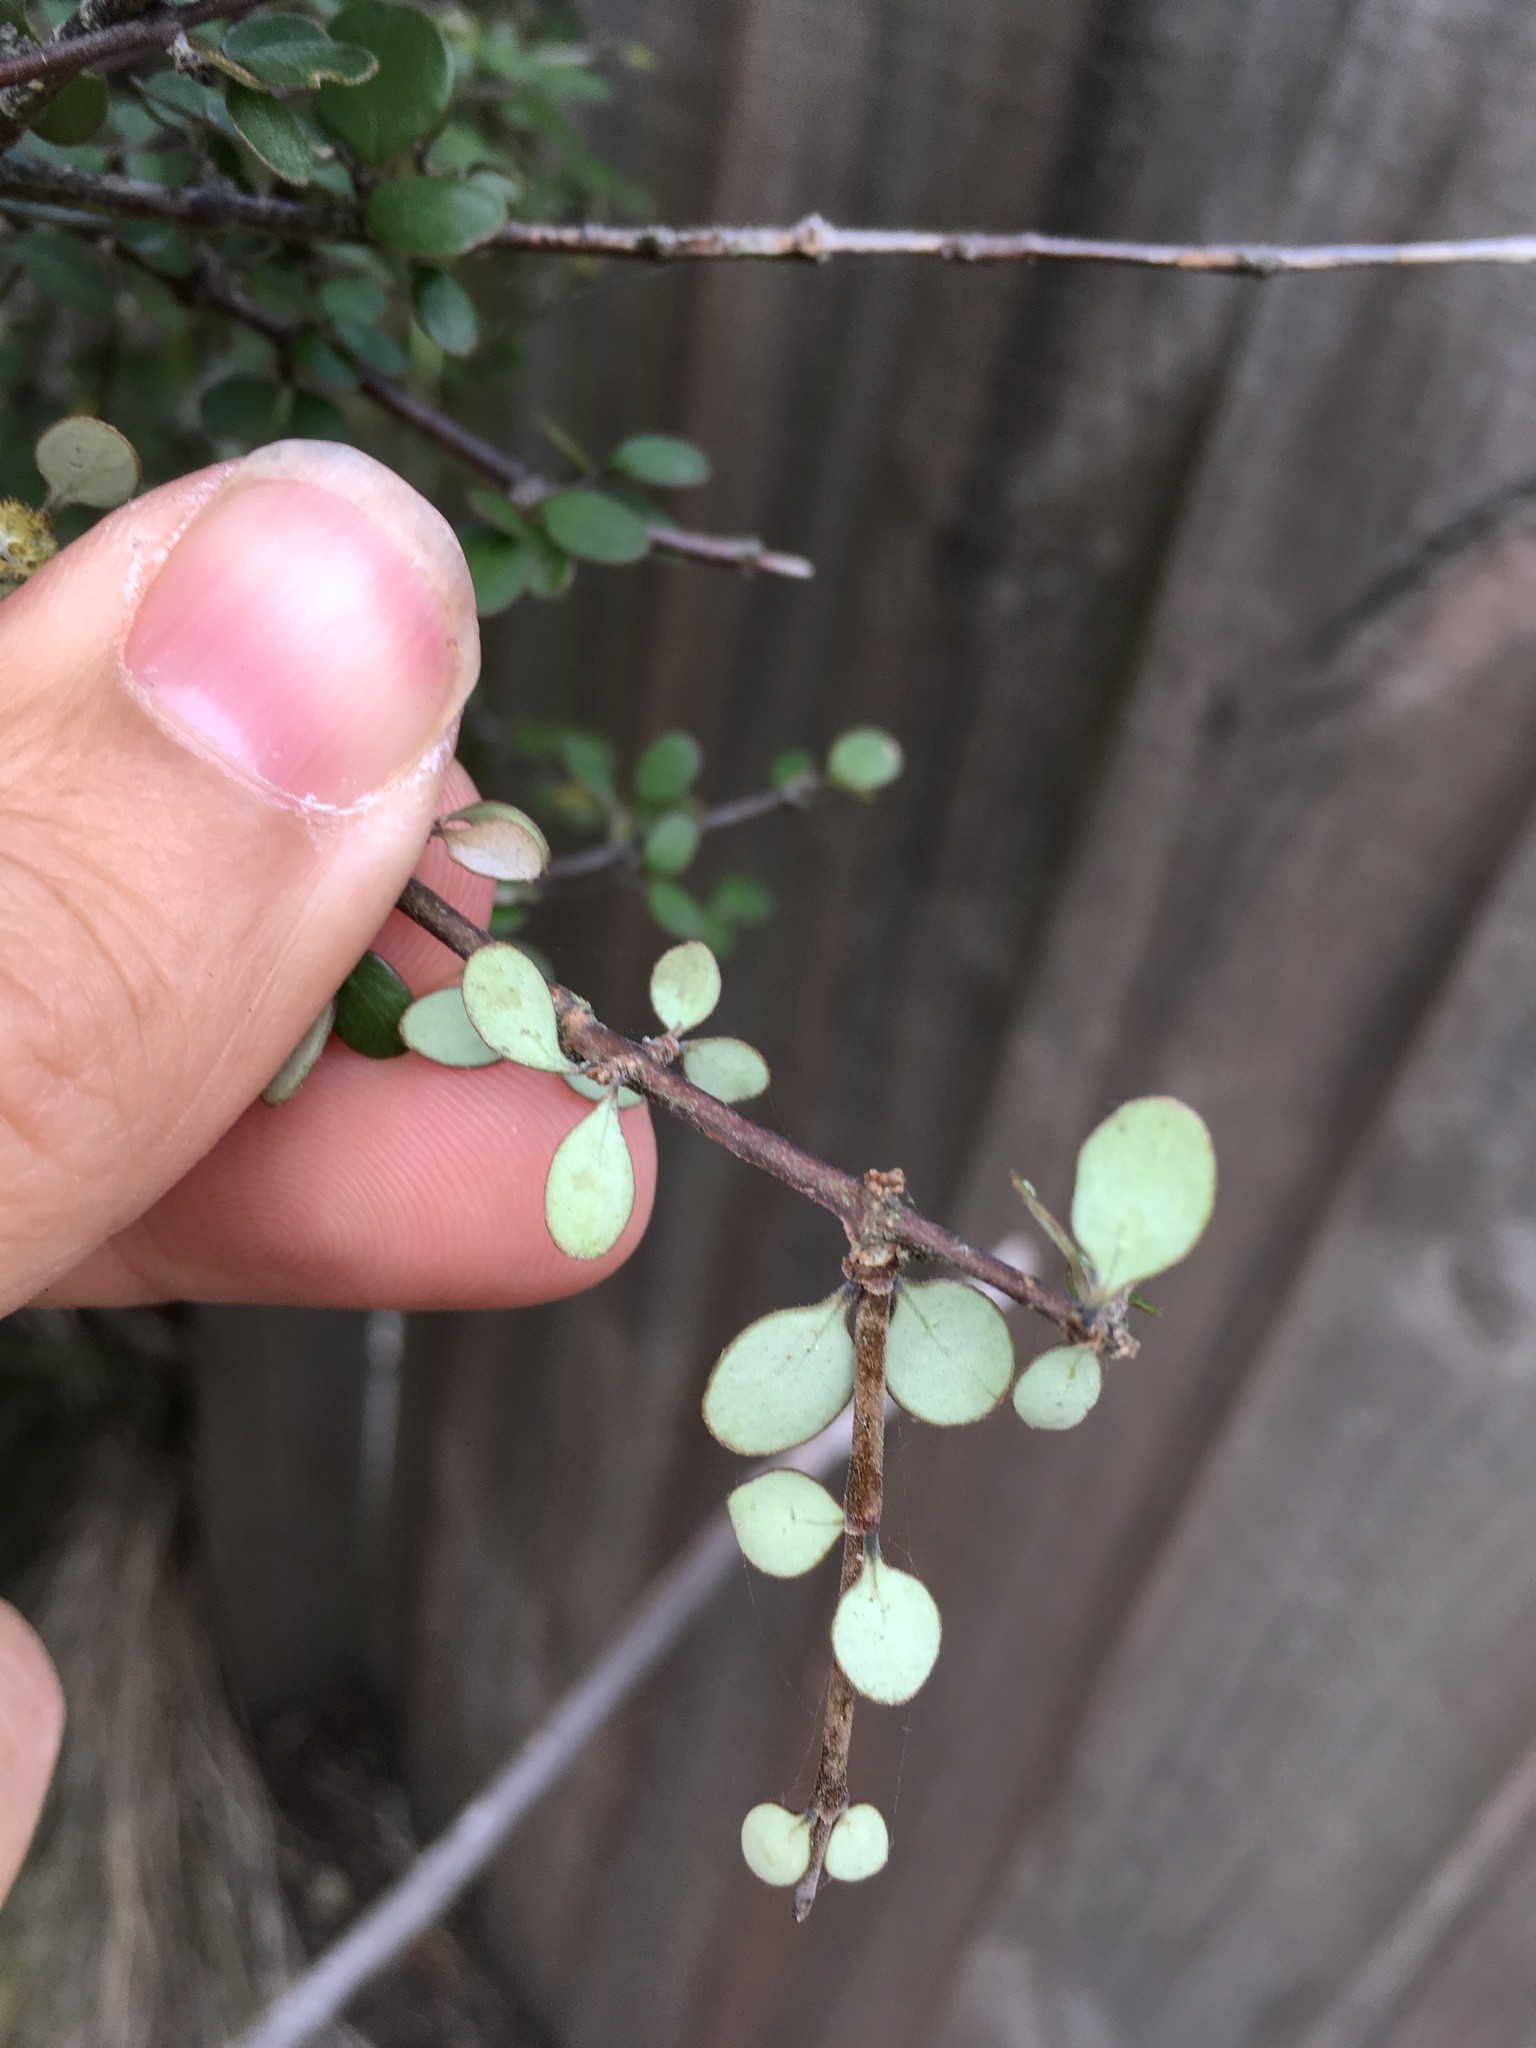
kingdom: Plantae
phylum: Tracheophyta
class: Magnoliopsida
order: Gentianales
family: Rubiaceae
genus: Coprosma
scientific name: Coprosma propinqua
